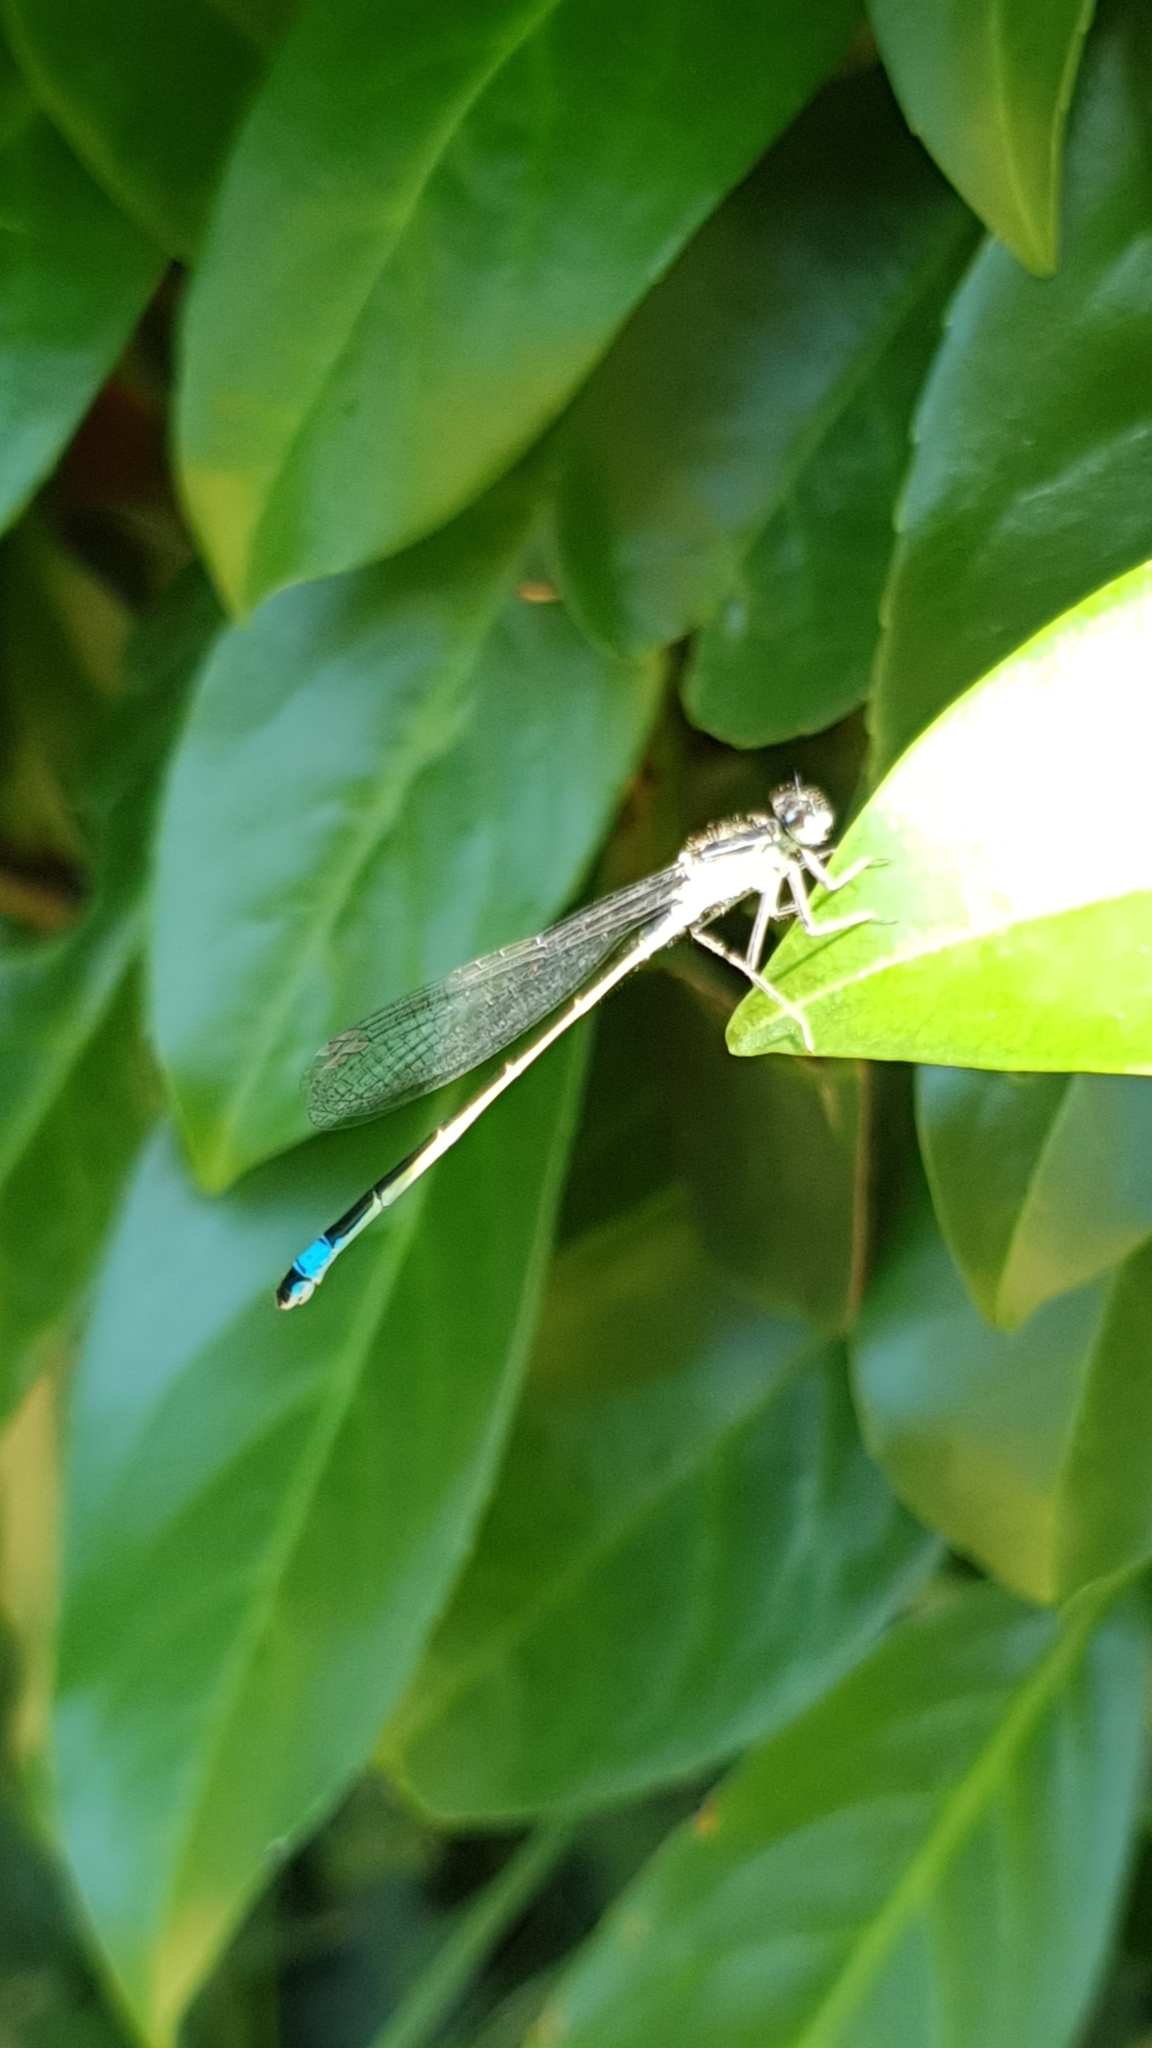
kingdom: Animalia
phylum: Arthropoda
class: Insecta
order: Odonata
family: Coenagrionidae
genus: Ischnura
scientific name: Ischnura elegans
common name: Blue-tailed damselfly
